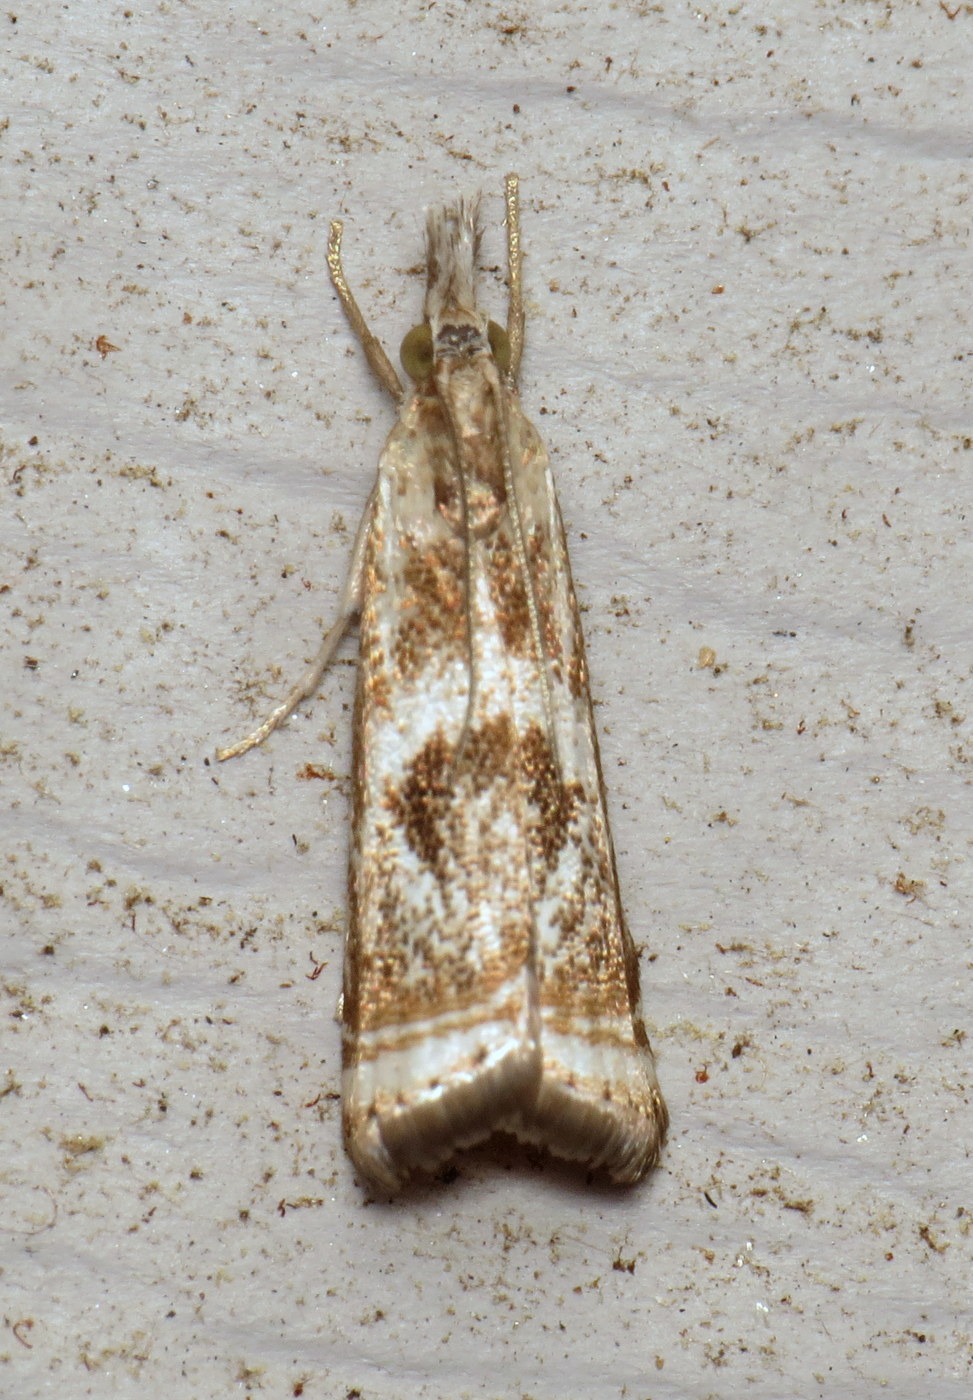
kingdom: Animalia
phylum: Arthropoda
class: Insecta
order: Lepidoptera
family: Crambidae
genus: Microcrambus
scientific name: Microcrambus elegans
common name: Elegant grass-veneer
